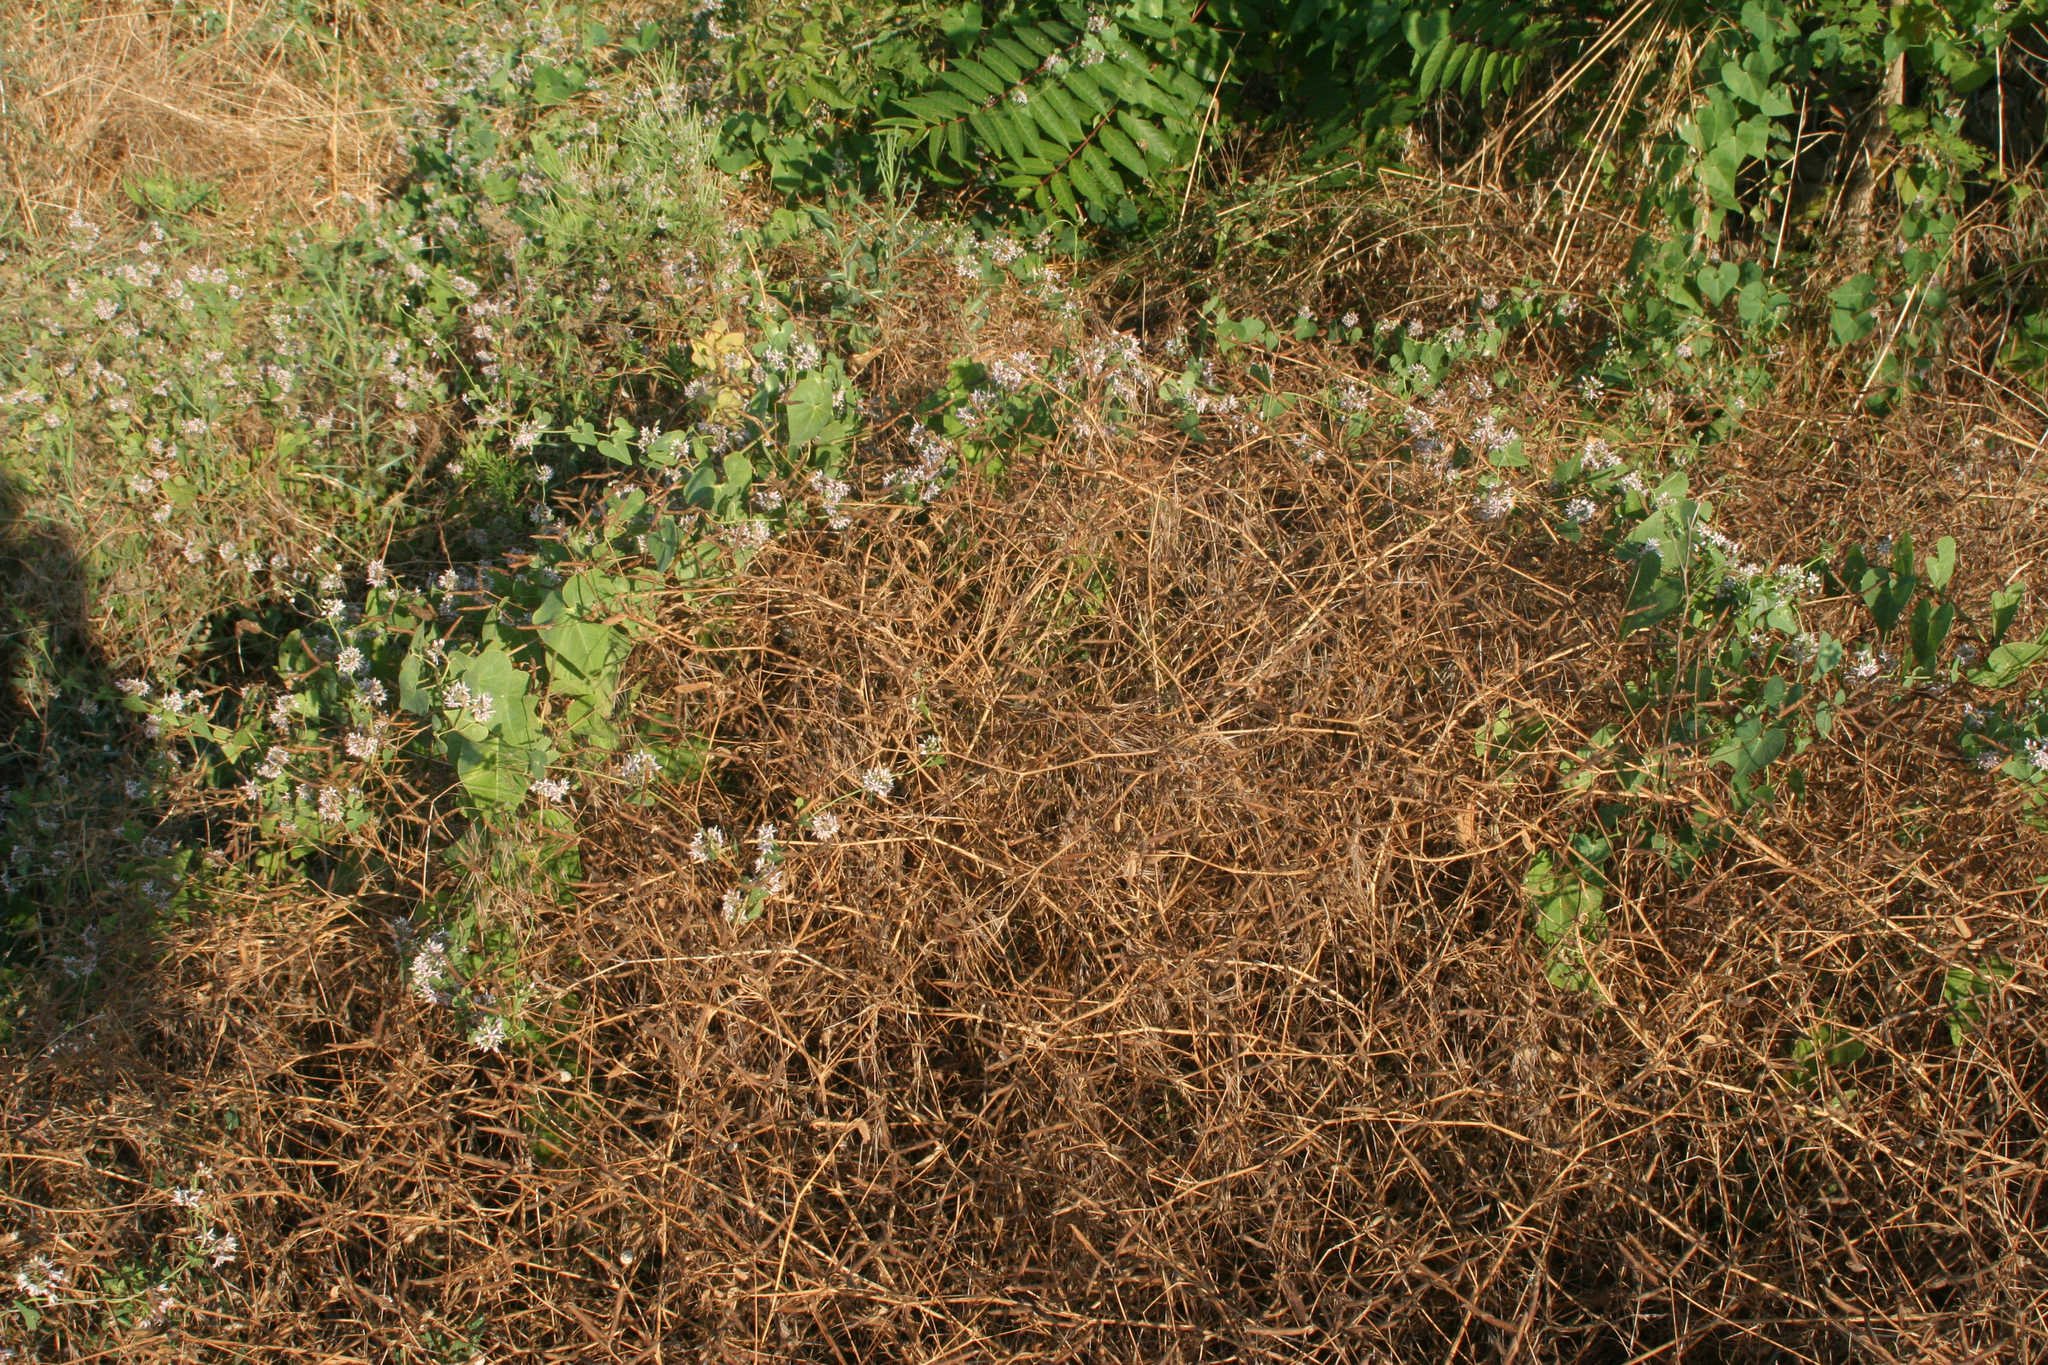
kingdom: Plantae
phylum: Tracheophyta
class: Magnoliopsida
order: Gentianales
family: Apocynaceae
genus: Cynanchum
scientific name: Cynanchum acutum
